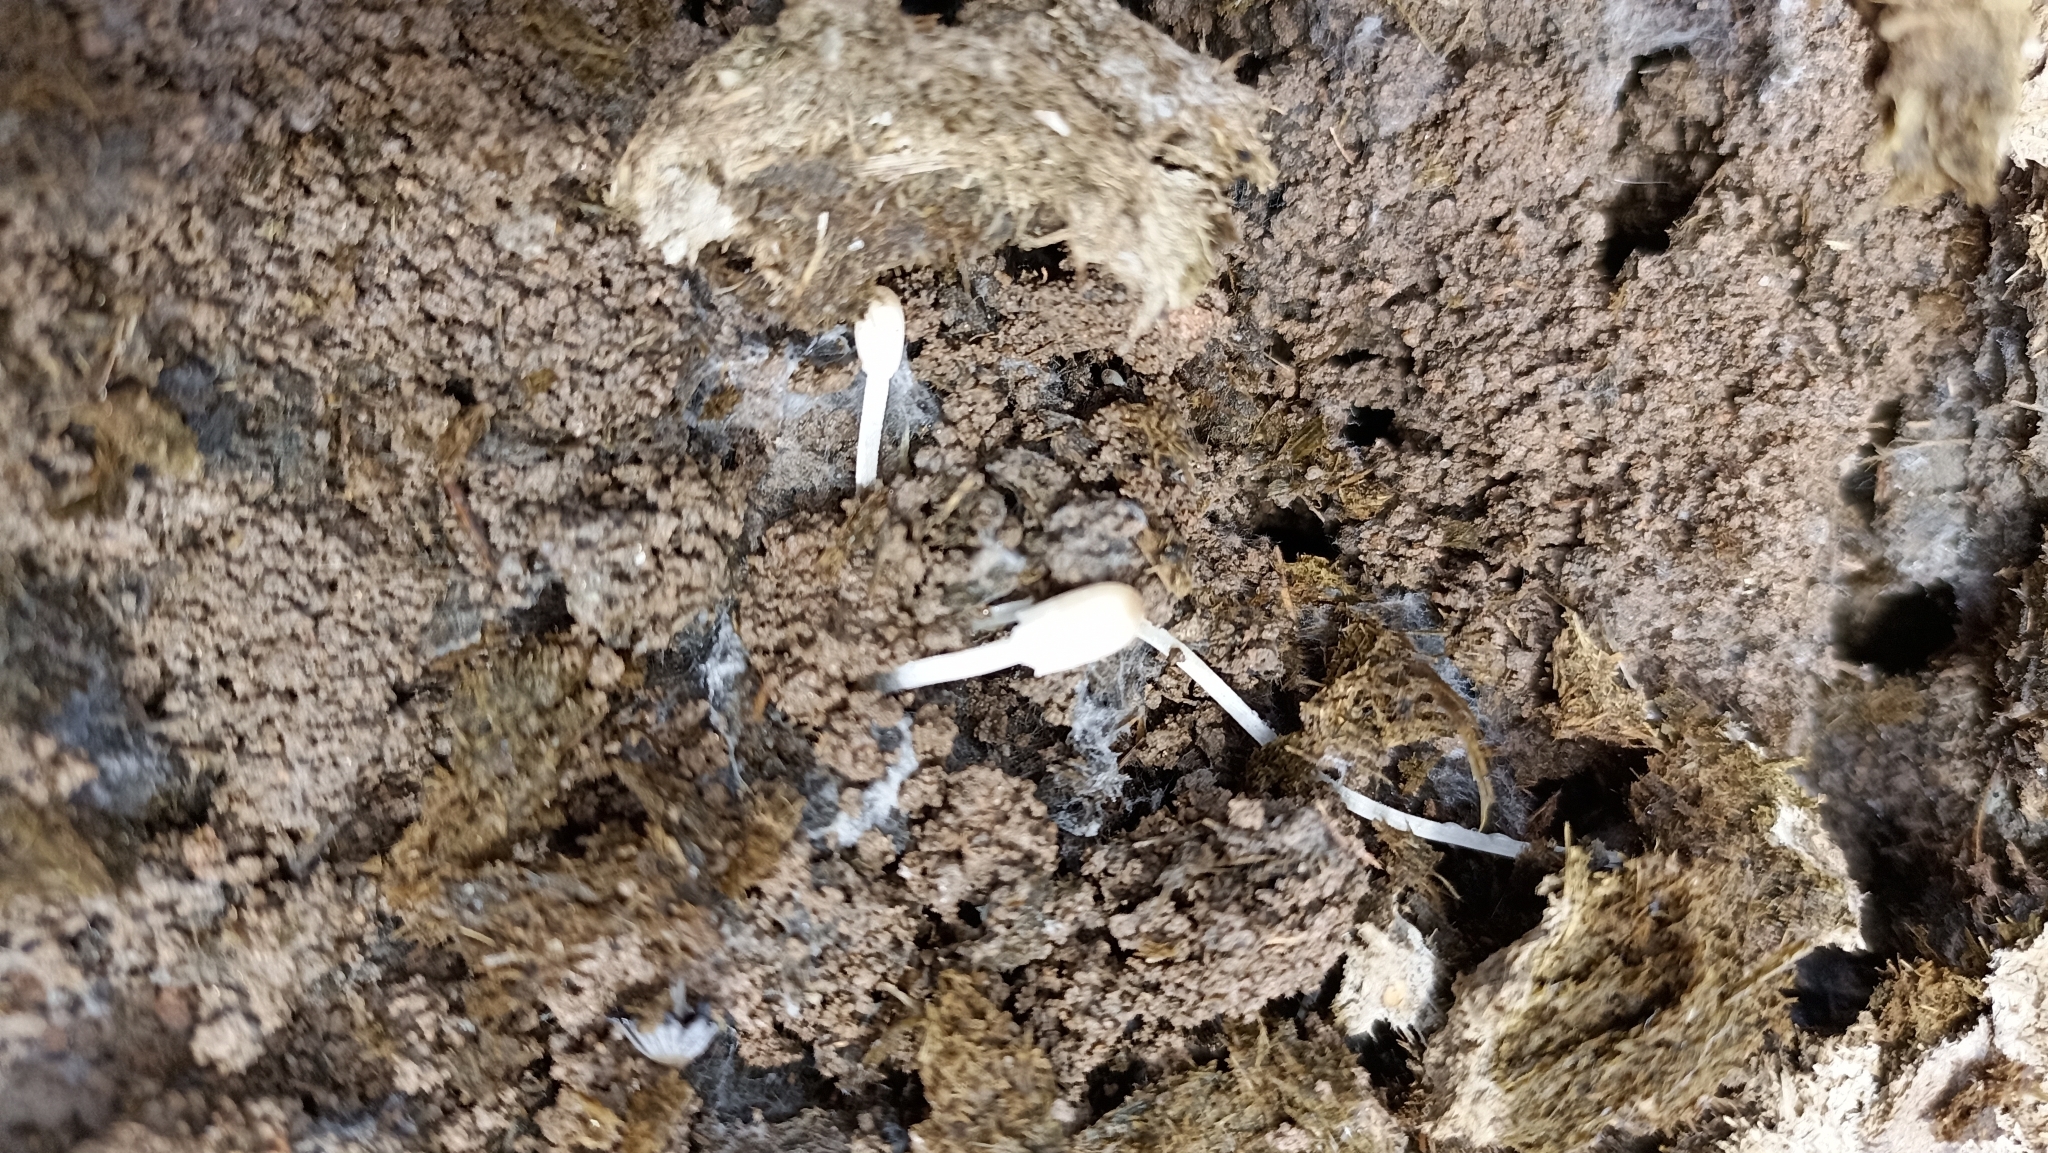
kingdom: Fungi
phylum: Basidiomycota
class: Agaricomycetes
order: Agaricales
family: Psathyrellaceae
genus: Coprinellus
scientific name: Coprinellus disseminatus
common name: Fairies' bonnets
